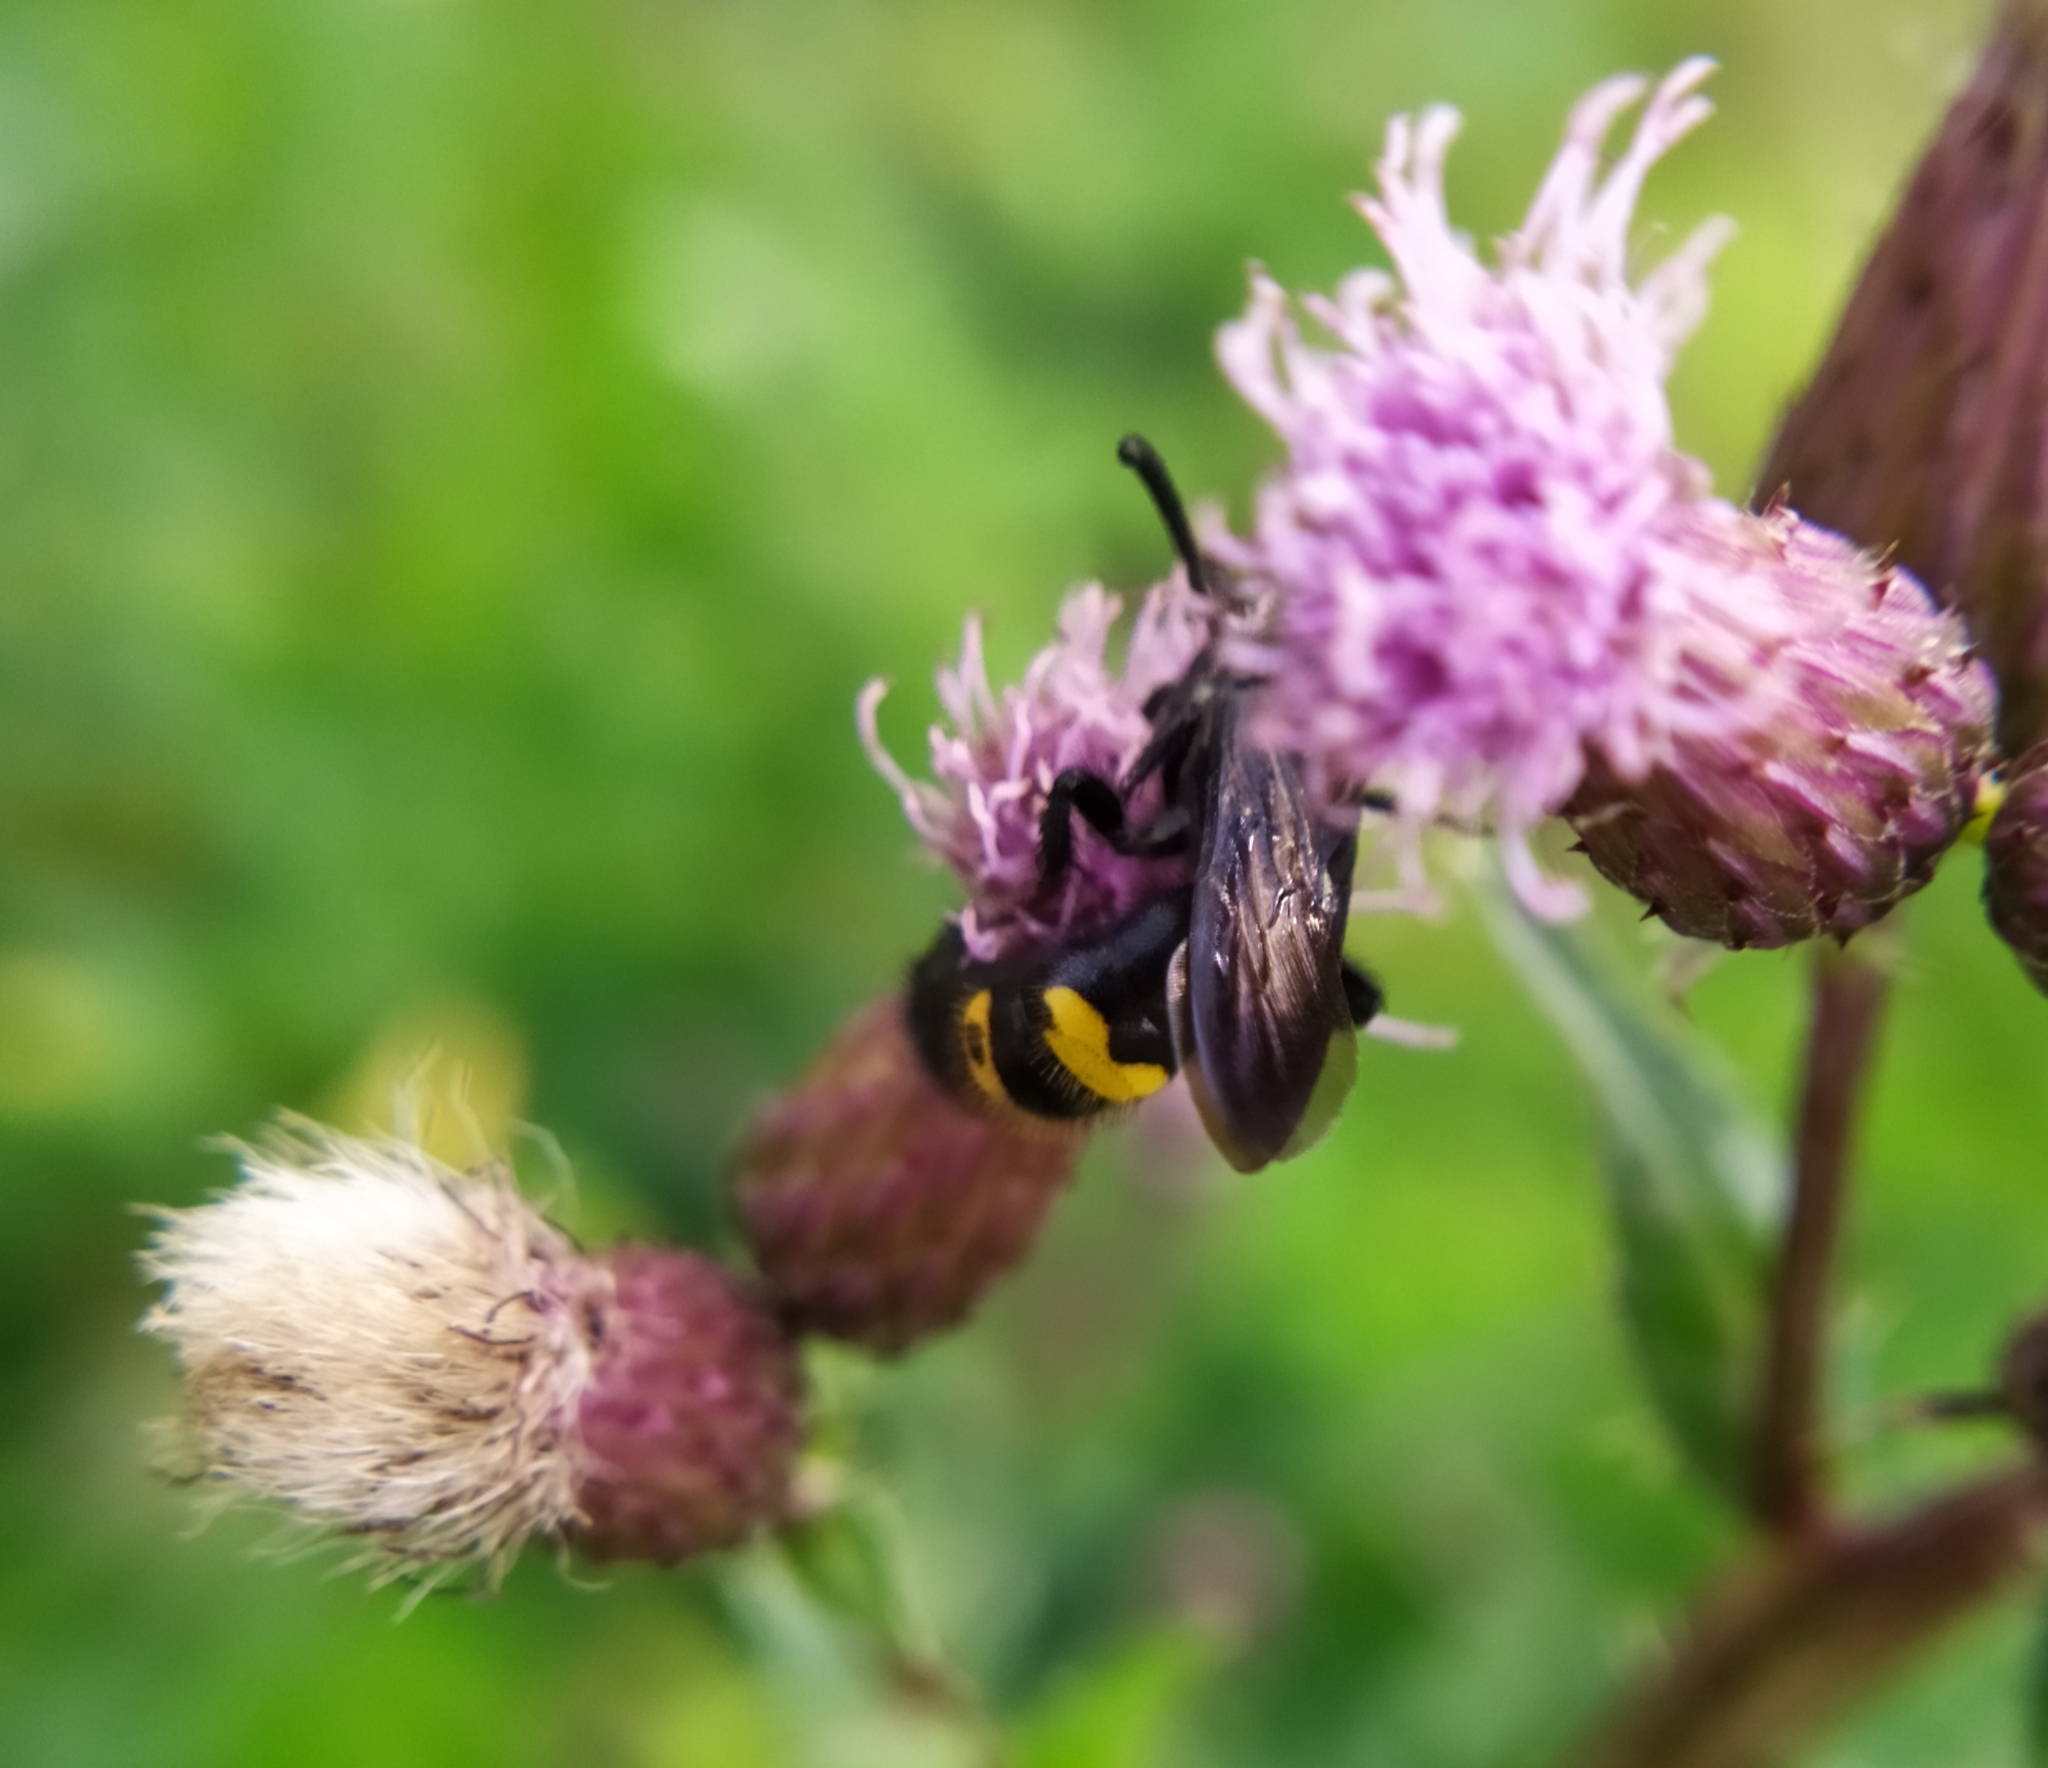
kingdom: Animalia
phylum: Arthropoda
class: Insecta
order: Hymenoptera
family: Scoliidae
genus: Scolia
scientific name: Scolia hirta
